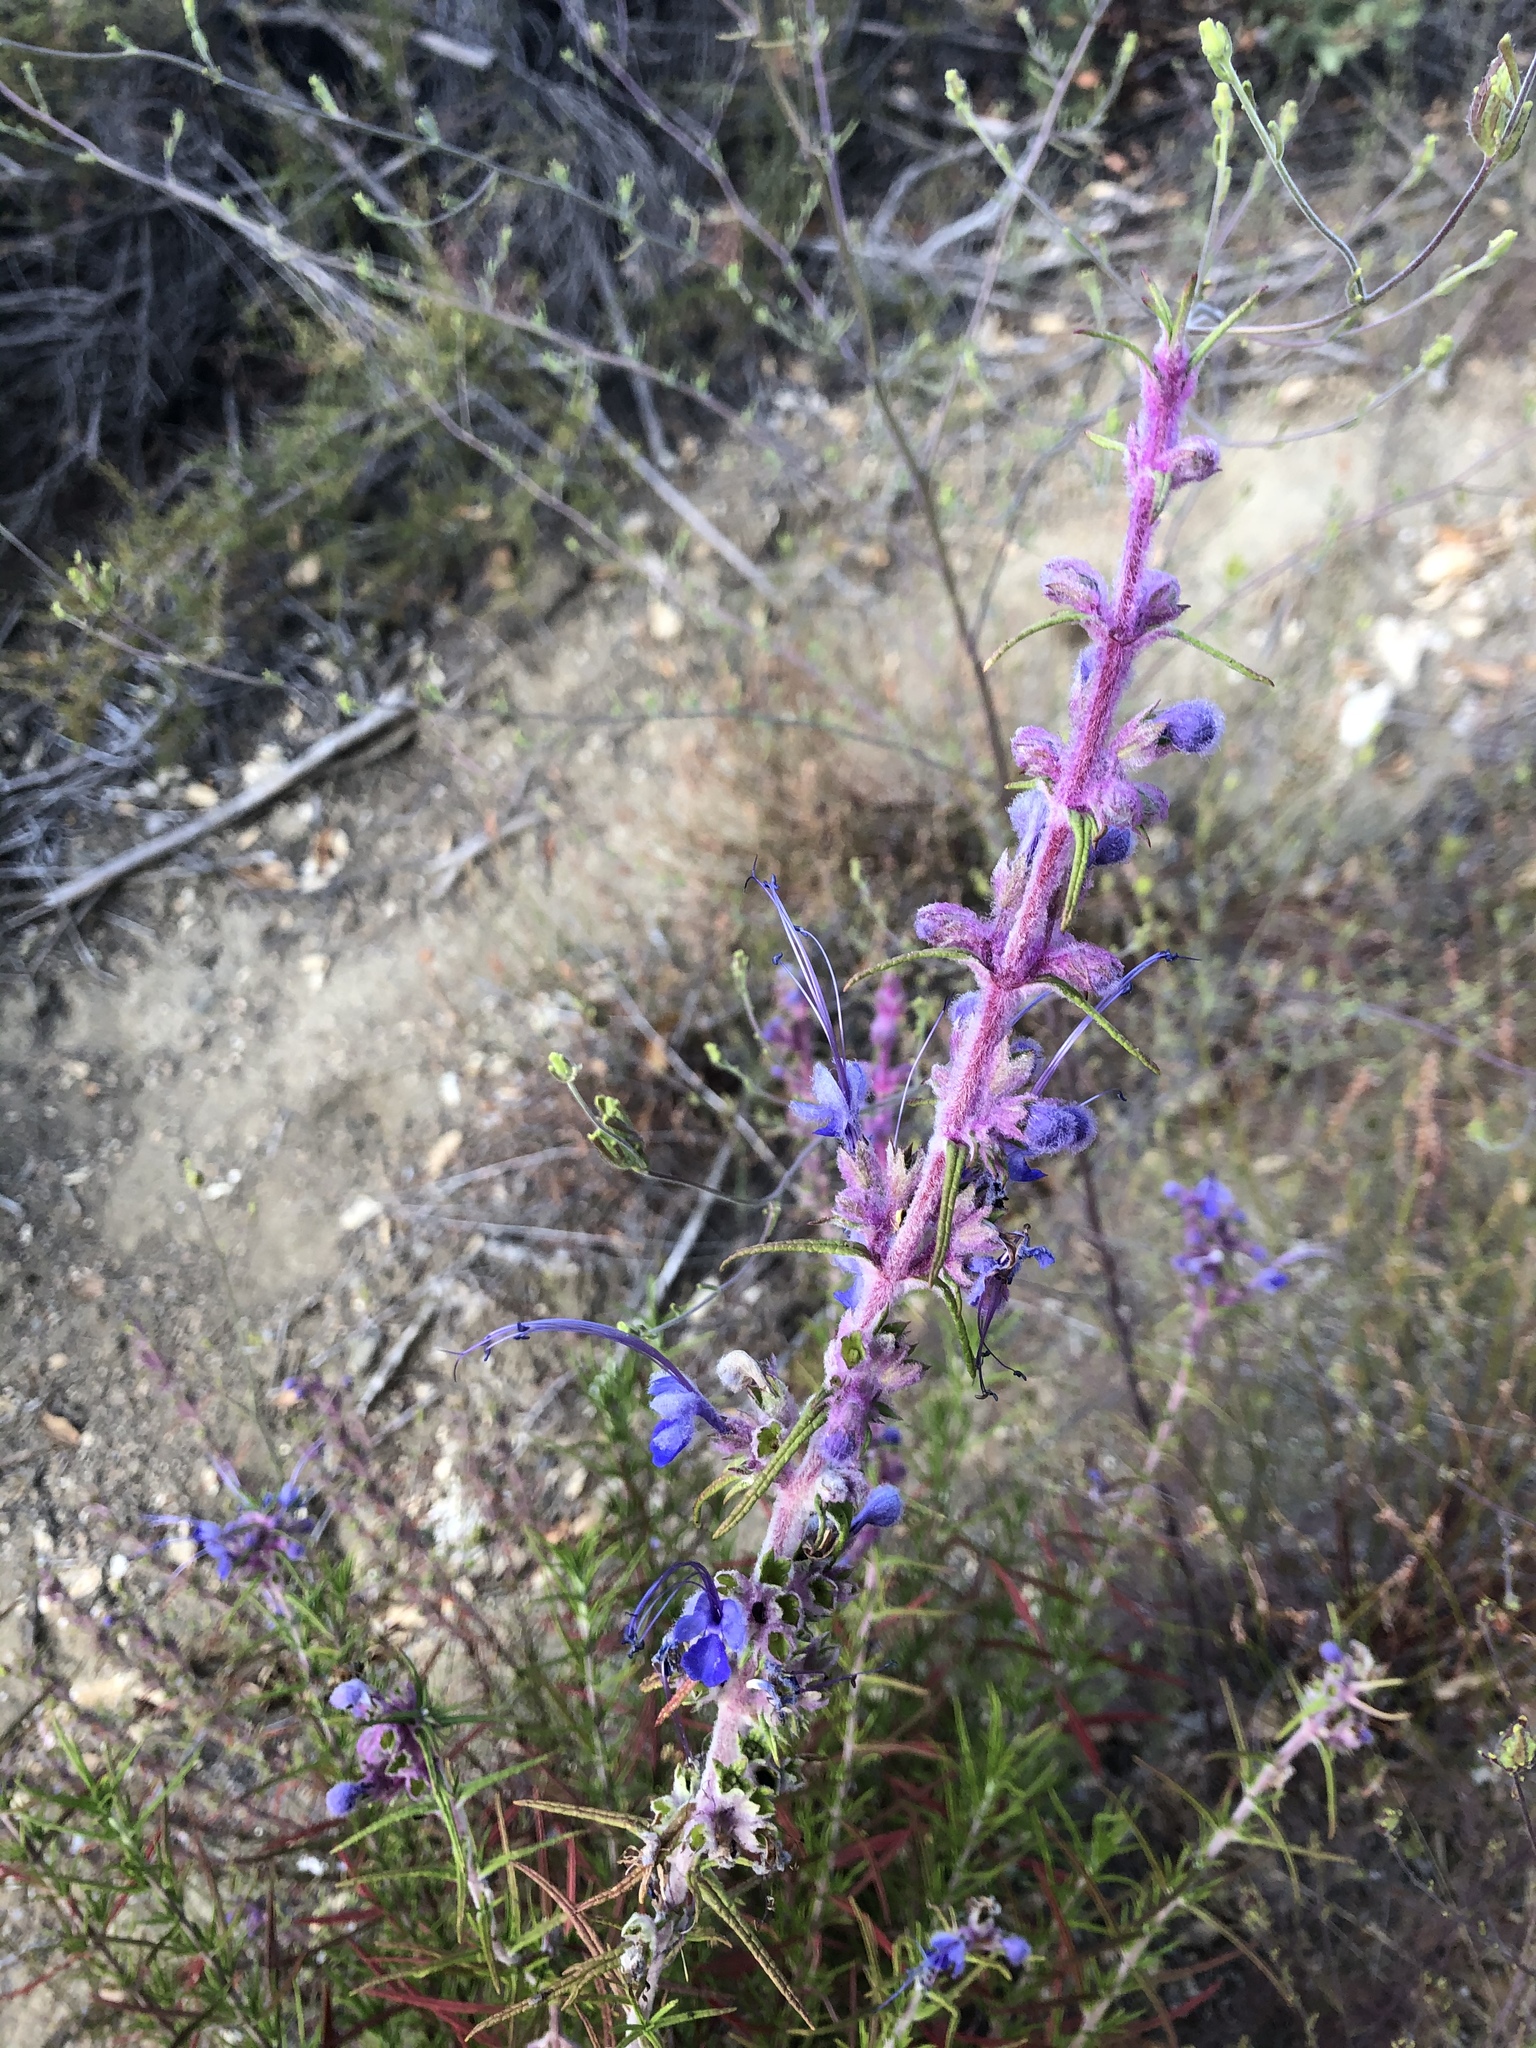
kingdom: Plantae
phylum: Tracheophyta
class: Magnoliopsida
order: Lamiales
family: Lamiaceae
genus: Trichostema
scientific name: Trichostema lanatum
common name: Woolly bluecurls
